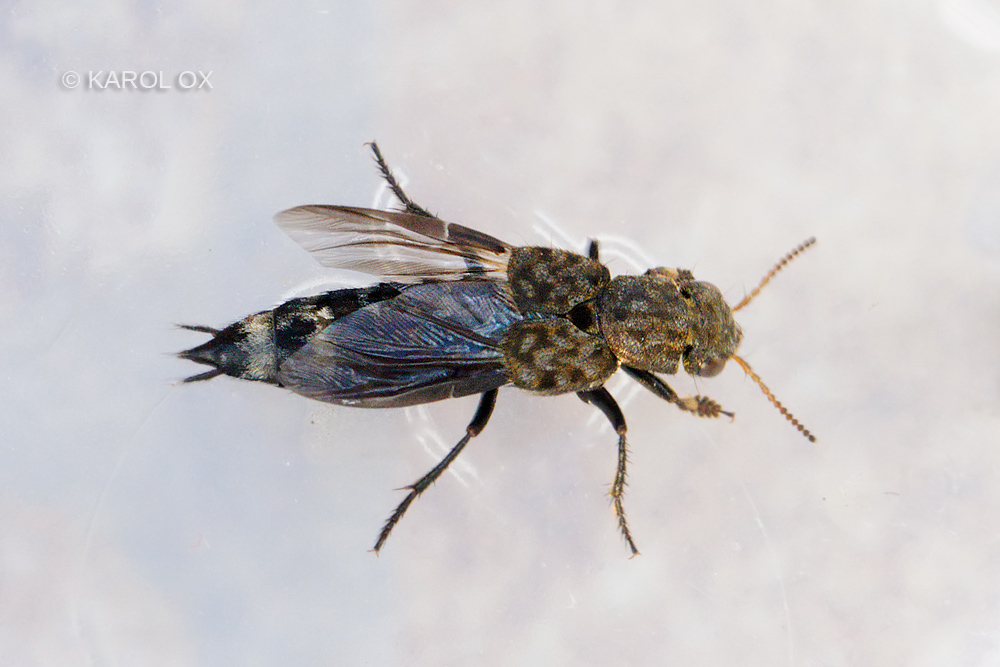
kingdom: Animalia
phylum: Arthropoda
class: Insecta
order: Coleoptera
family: Staphylinidae
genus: Ontholestes
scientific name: Ontholestes murinus
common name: Staph beetle
